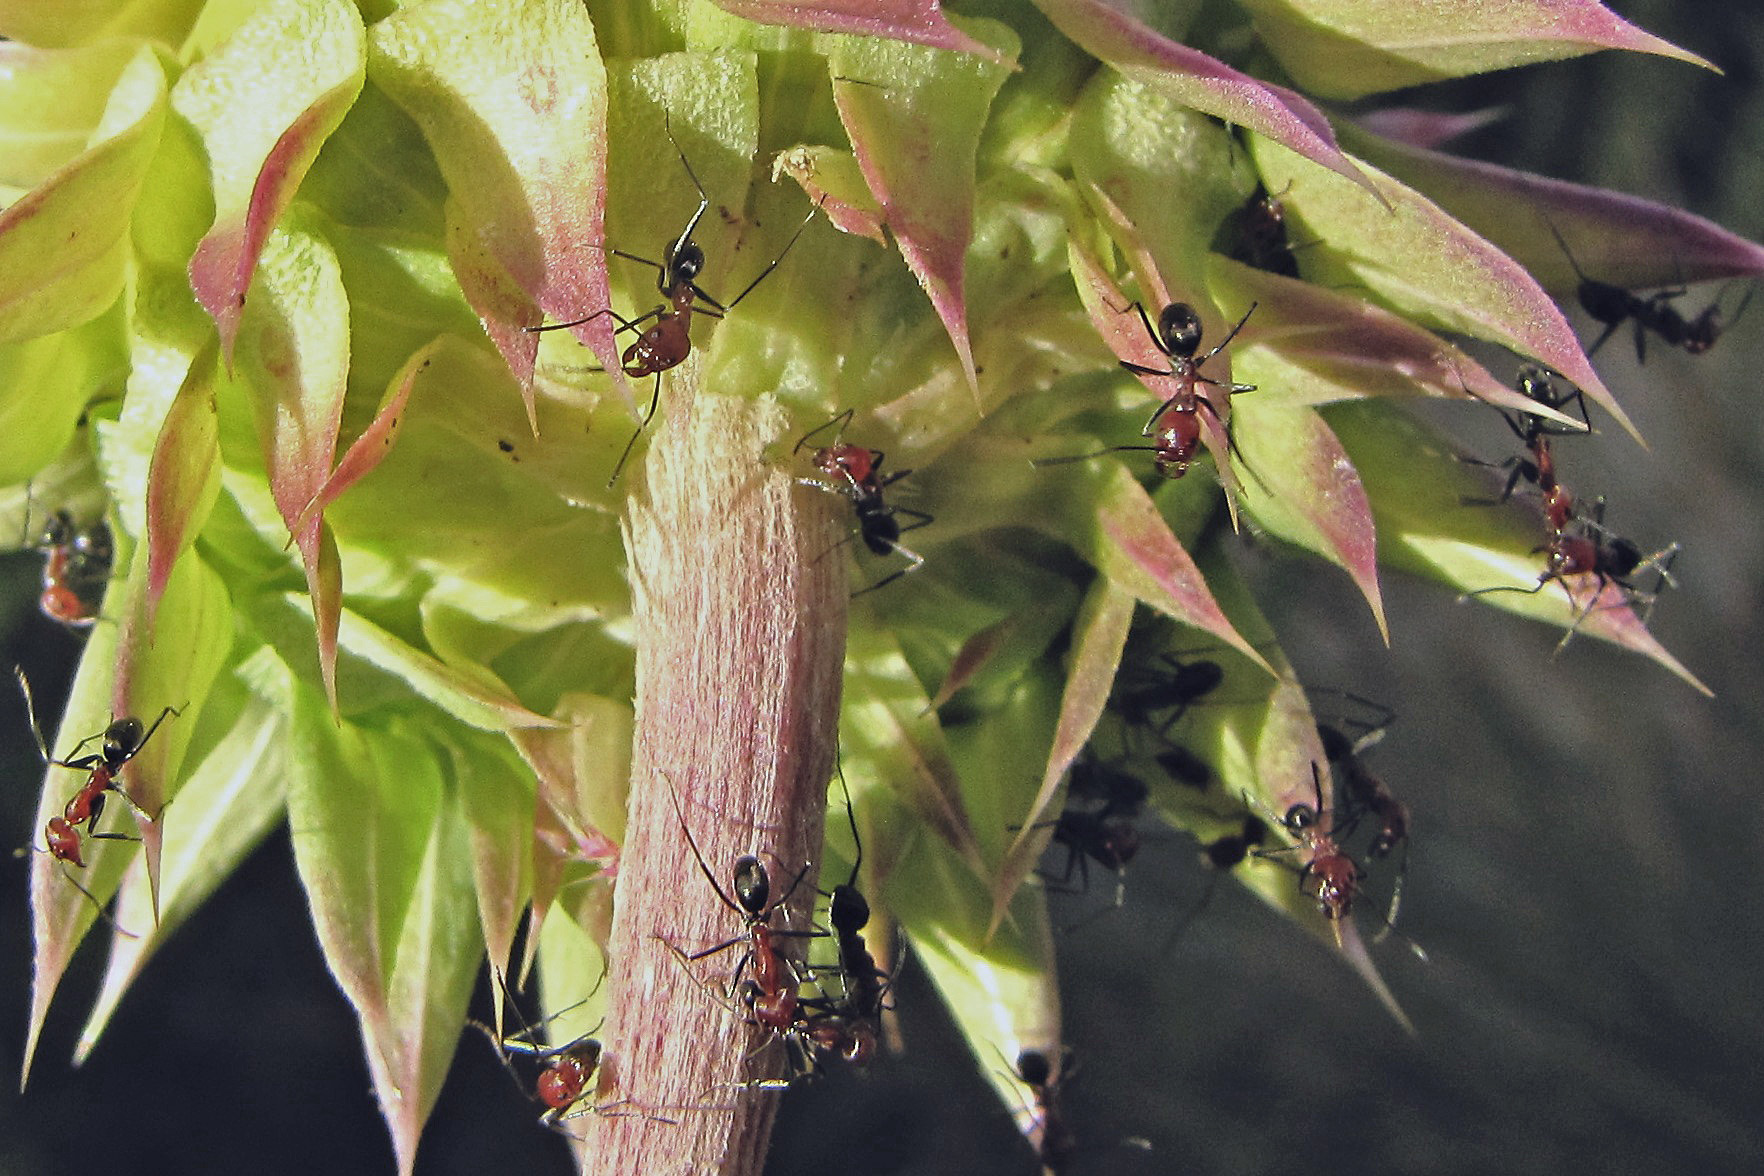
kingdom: Animalia
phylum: Arthropoda
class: Insecta
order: Hymenoptera
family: Formicidae
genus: Dorymyrmex
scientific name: Dorymyrmex tener
